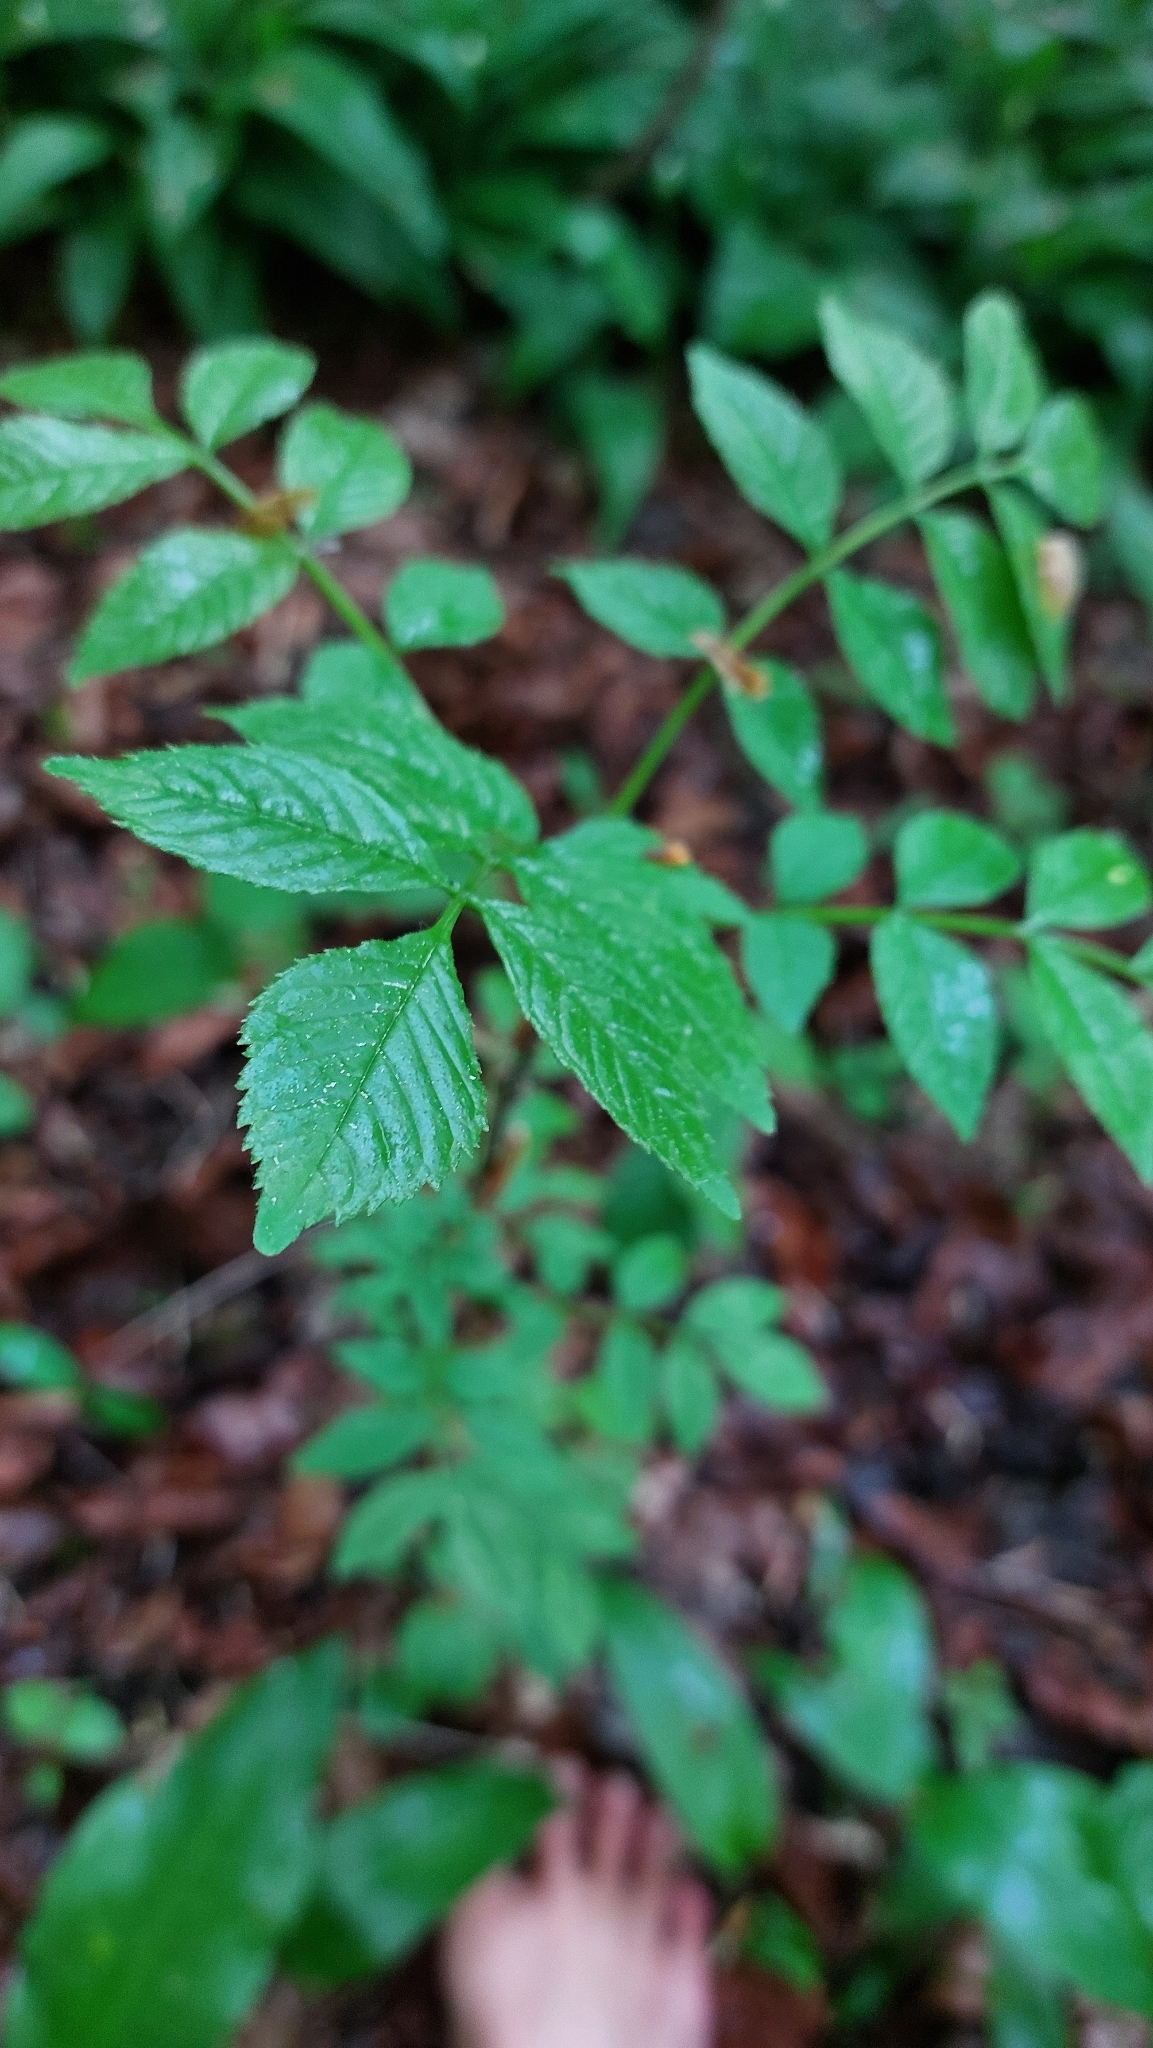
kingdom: Plantae
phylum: Tracheophyta
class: Magnoliopsida
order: Lamiales
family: Oleaceae
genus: Fraxinus
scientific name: Fraxinus excelsior
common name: European ash
